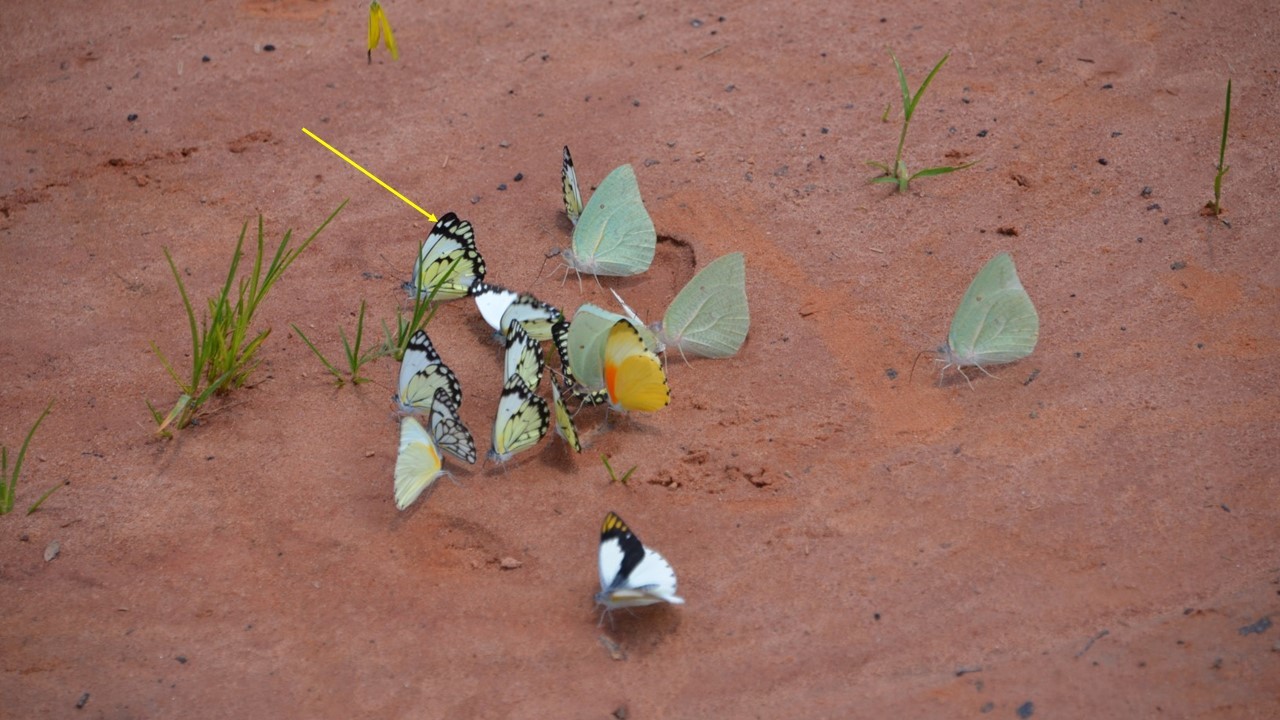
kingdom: Animalia
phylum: Arthropoda
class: Insecta
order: Lepidoptera
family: Pieridae
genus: Belenois
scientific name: Belenois
